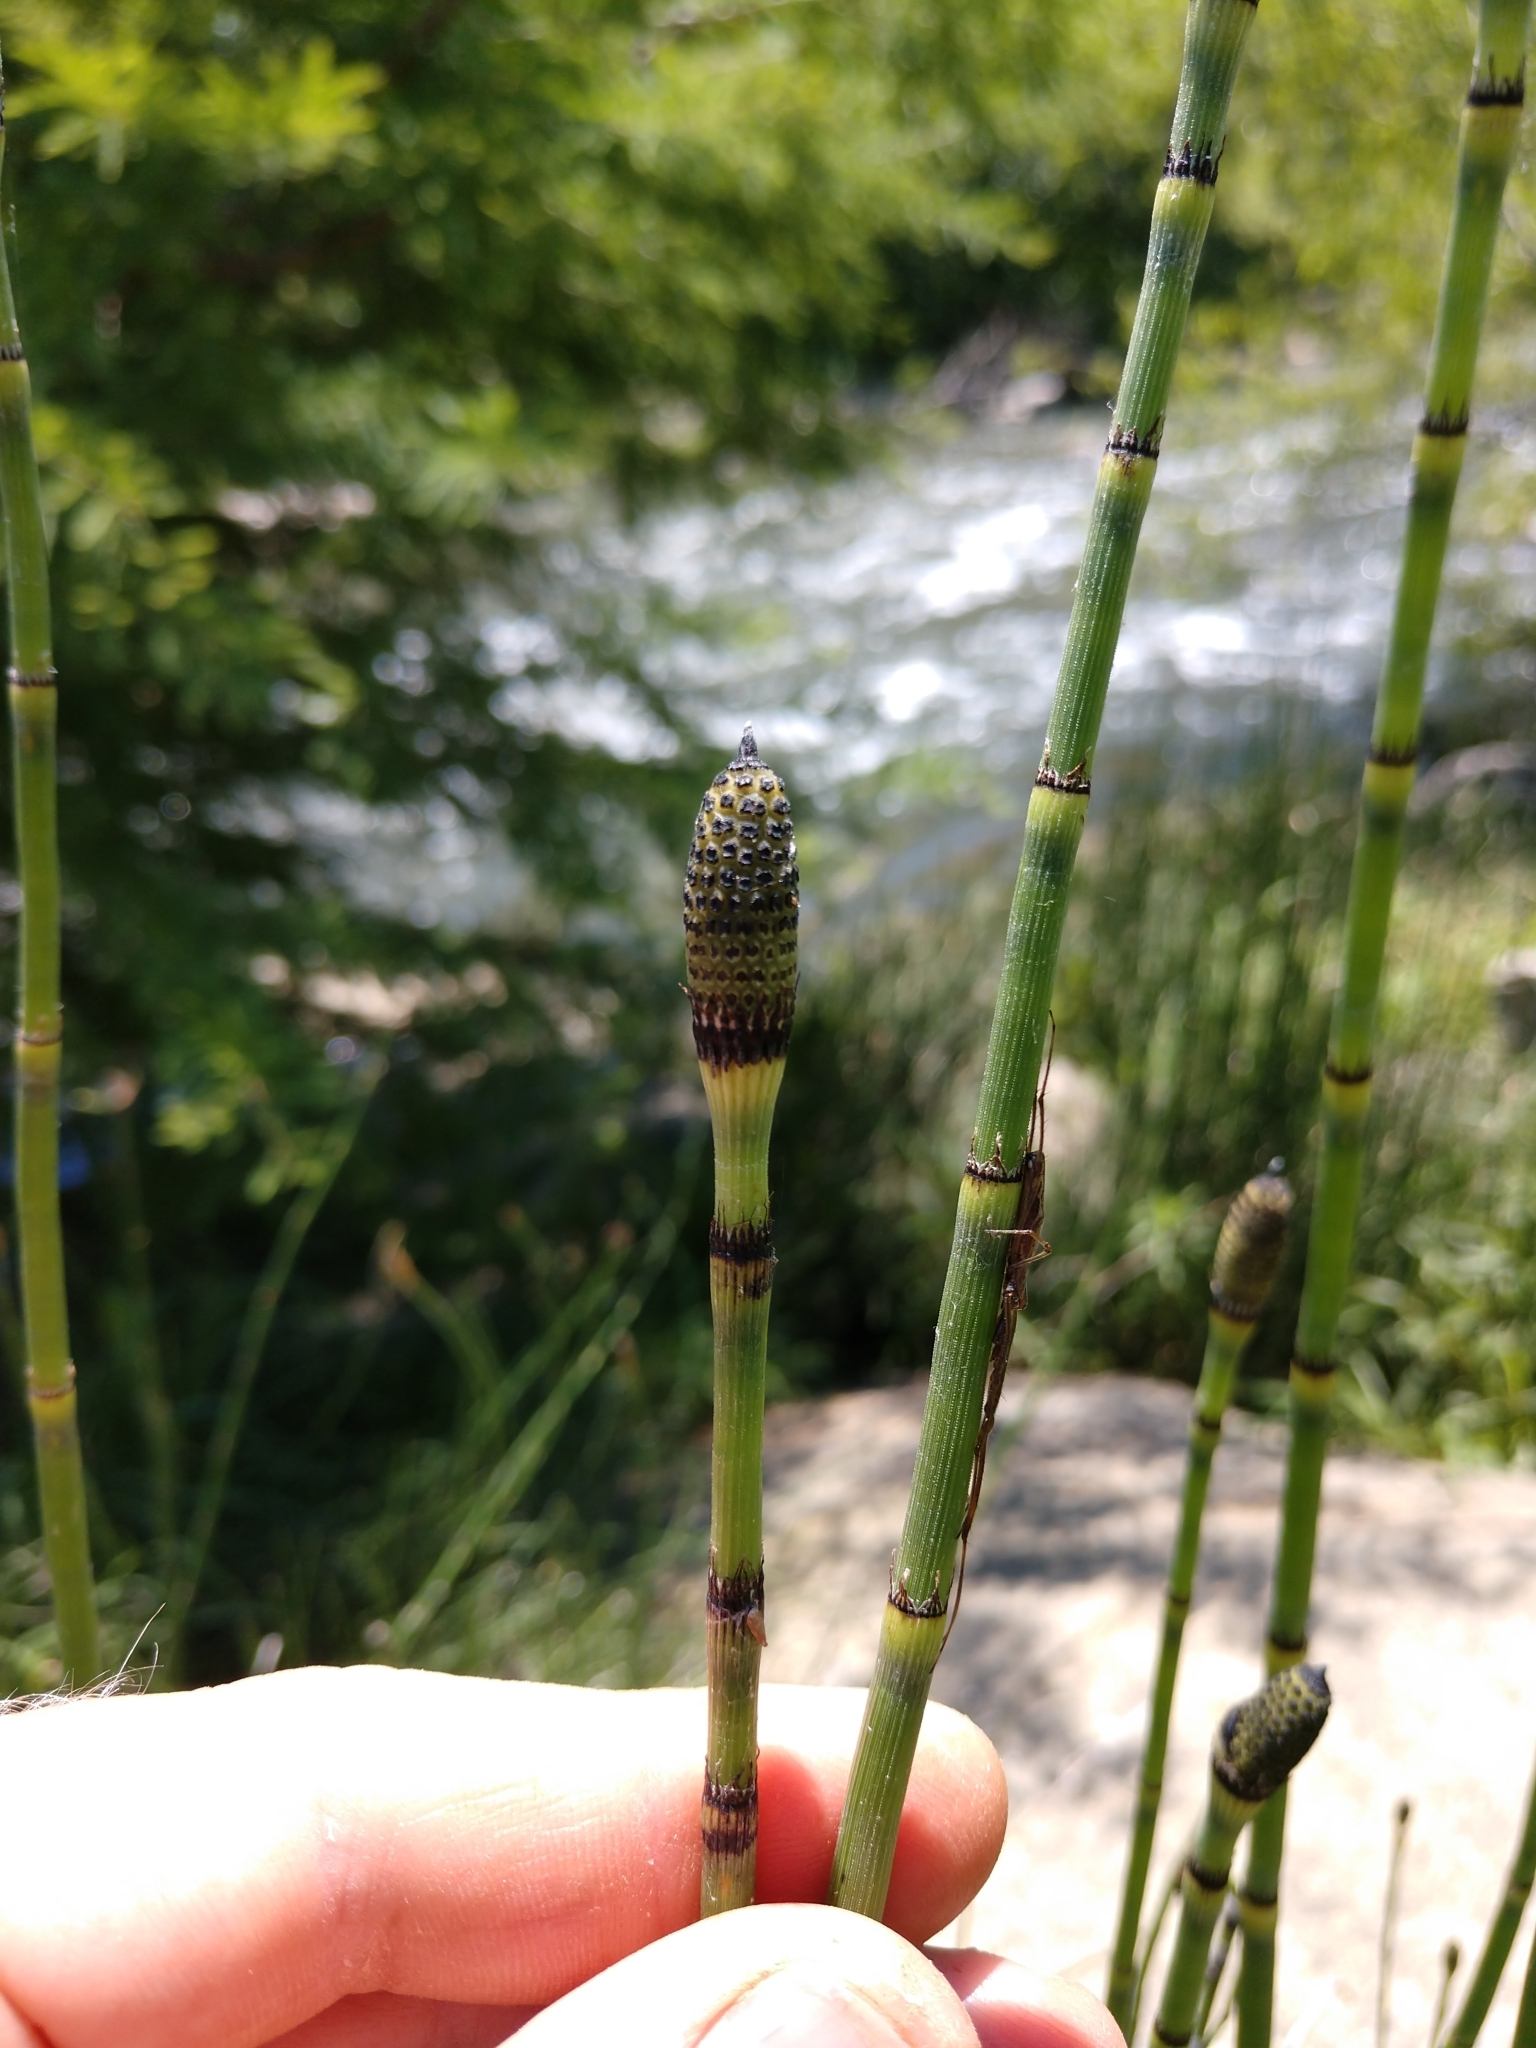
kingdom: Plantae
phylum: Tracheophyta
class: Polypodiopsida
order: Equisetales
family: Equisetaceae
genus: Equisetum
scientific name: Equisetum hyemale
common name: Rough horsetail
